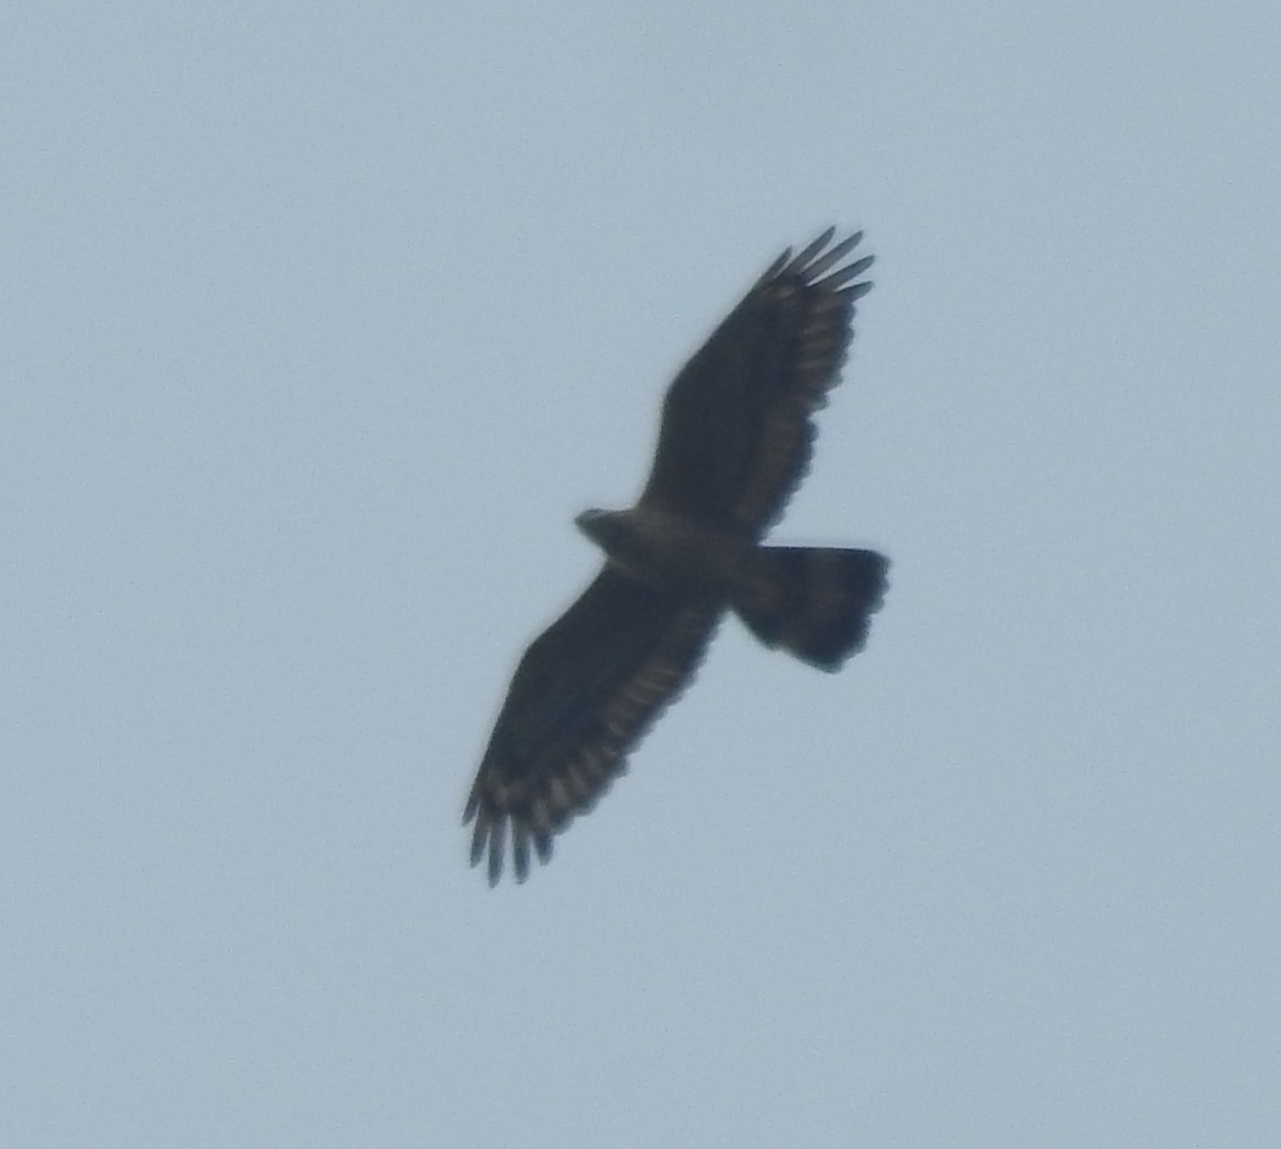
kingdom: Animalia
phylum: Chordata
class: Aves
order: Accipitriformes
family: Accipitridae
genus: Pernis
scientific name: Pernis ptilorhynchus
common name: Crested honey buzzard
